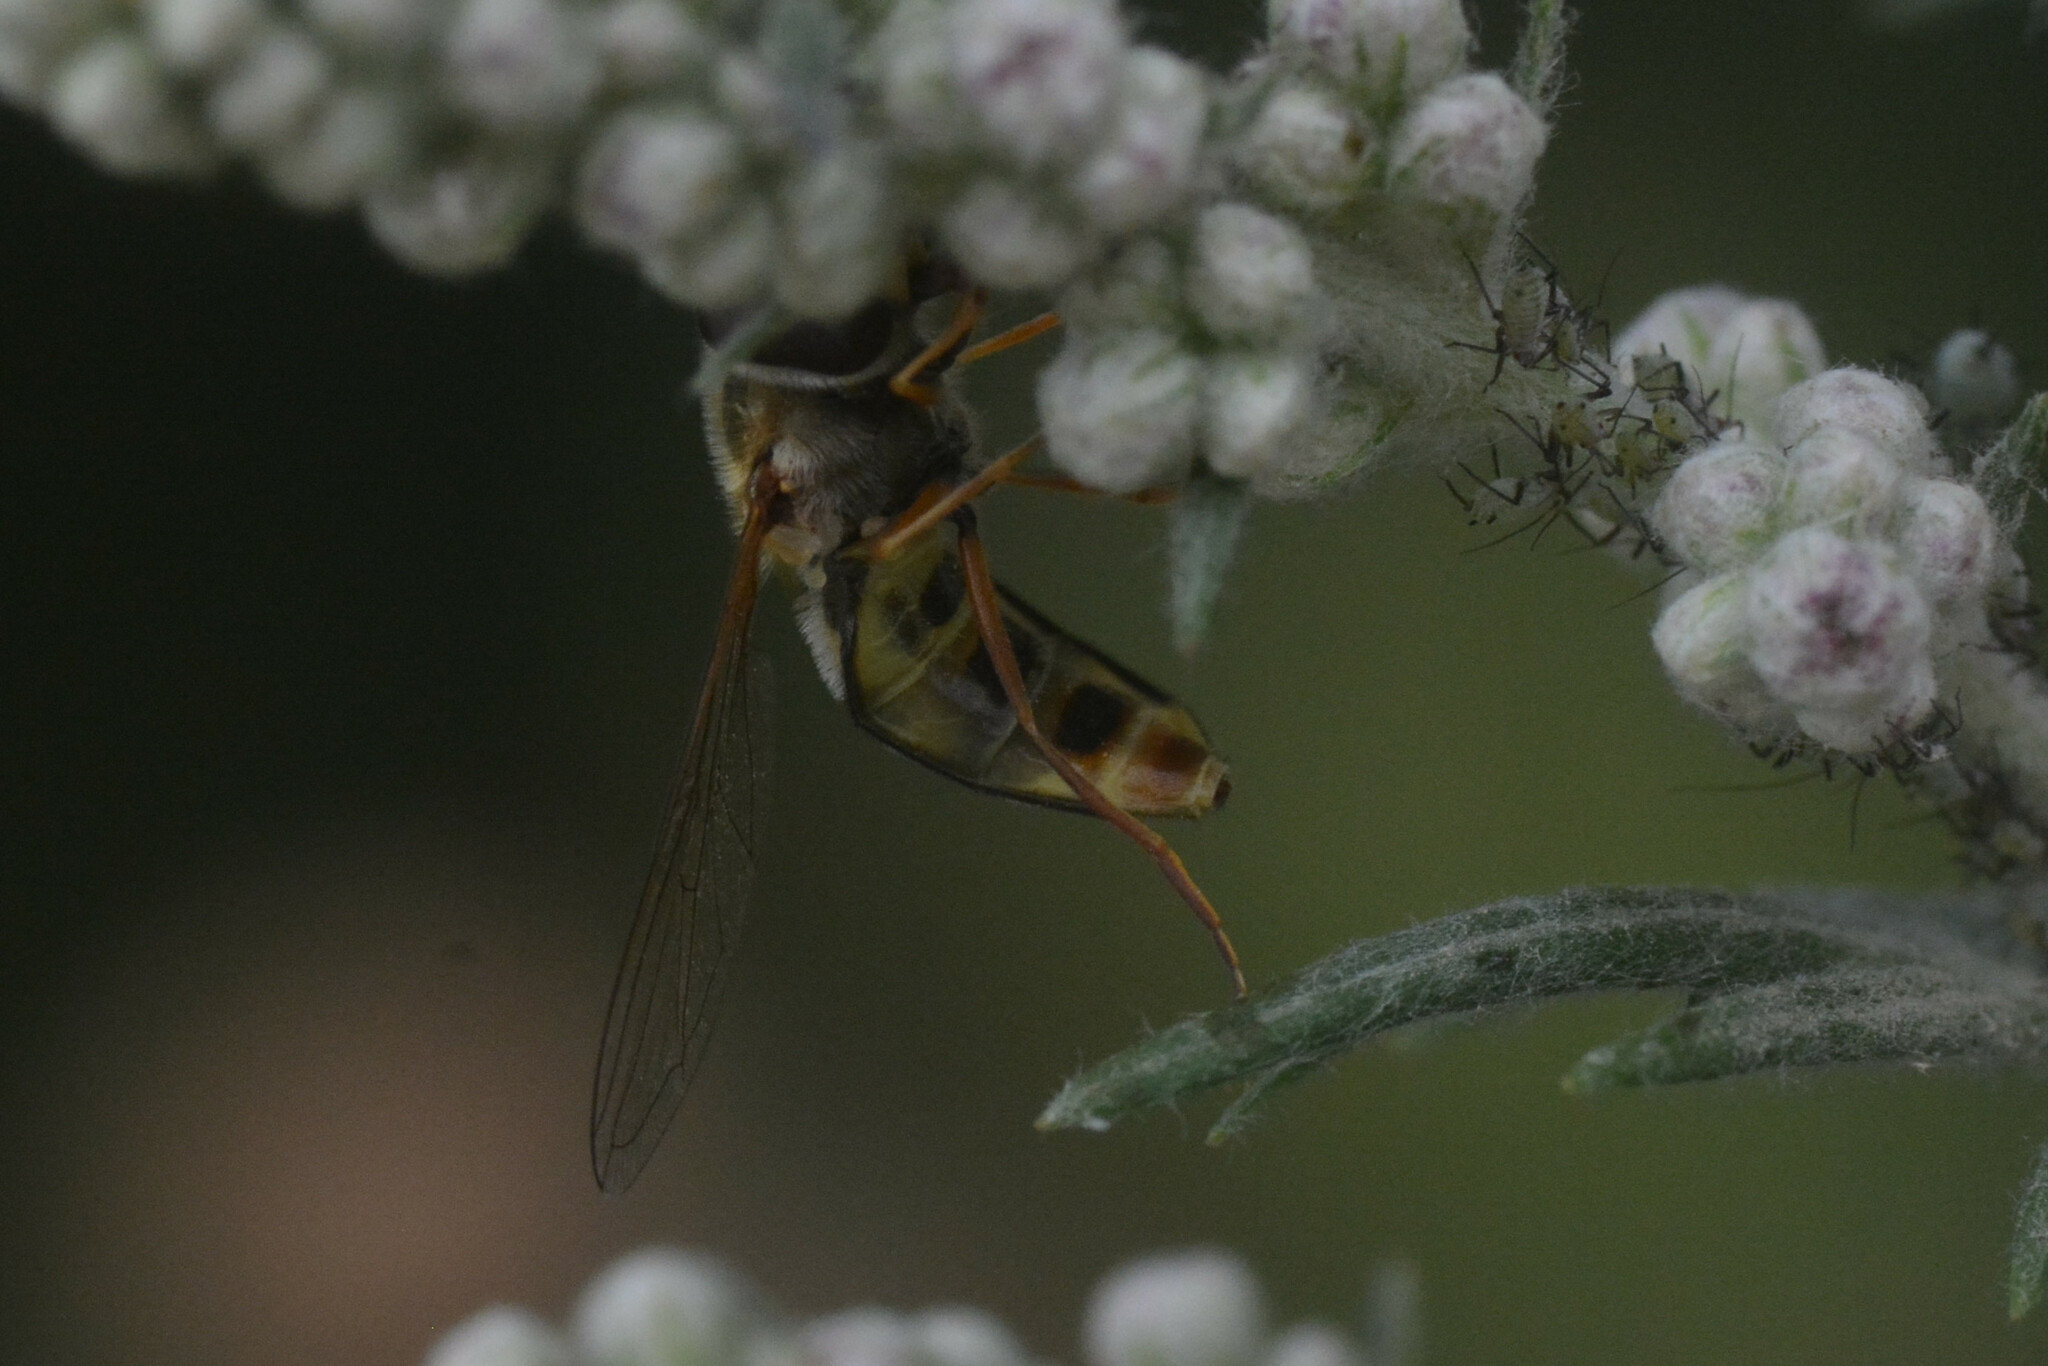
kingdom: Animalia
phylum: Arthropoda
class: Insecta
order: Diptera
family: Syrphidae
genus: Eupeodes
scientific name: Eupeodes luniger
